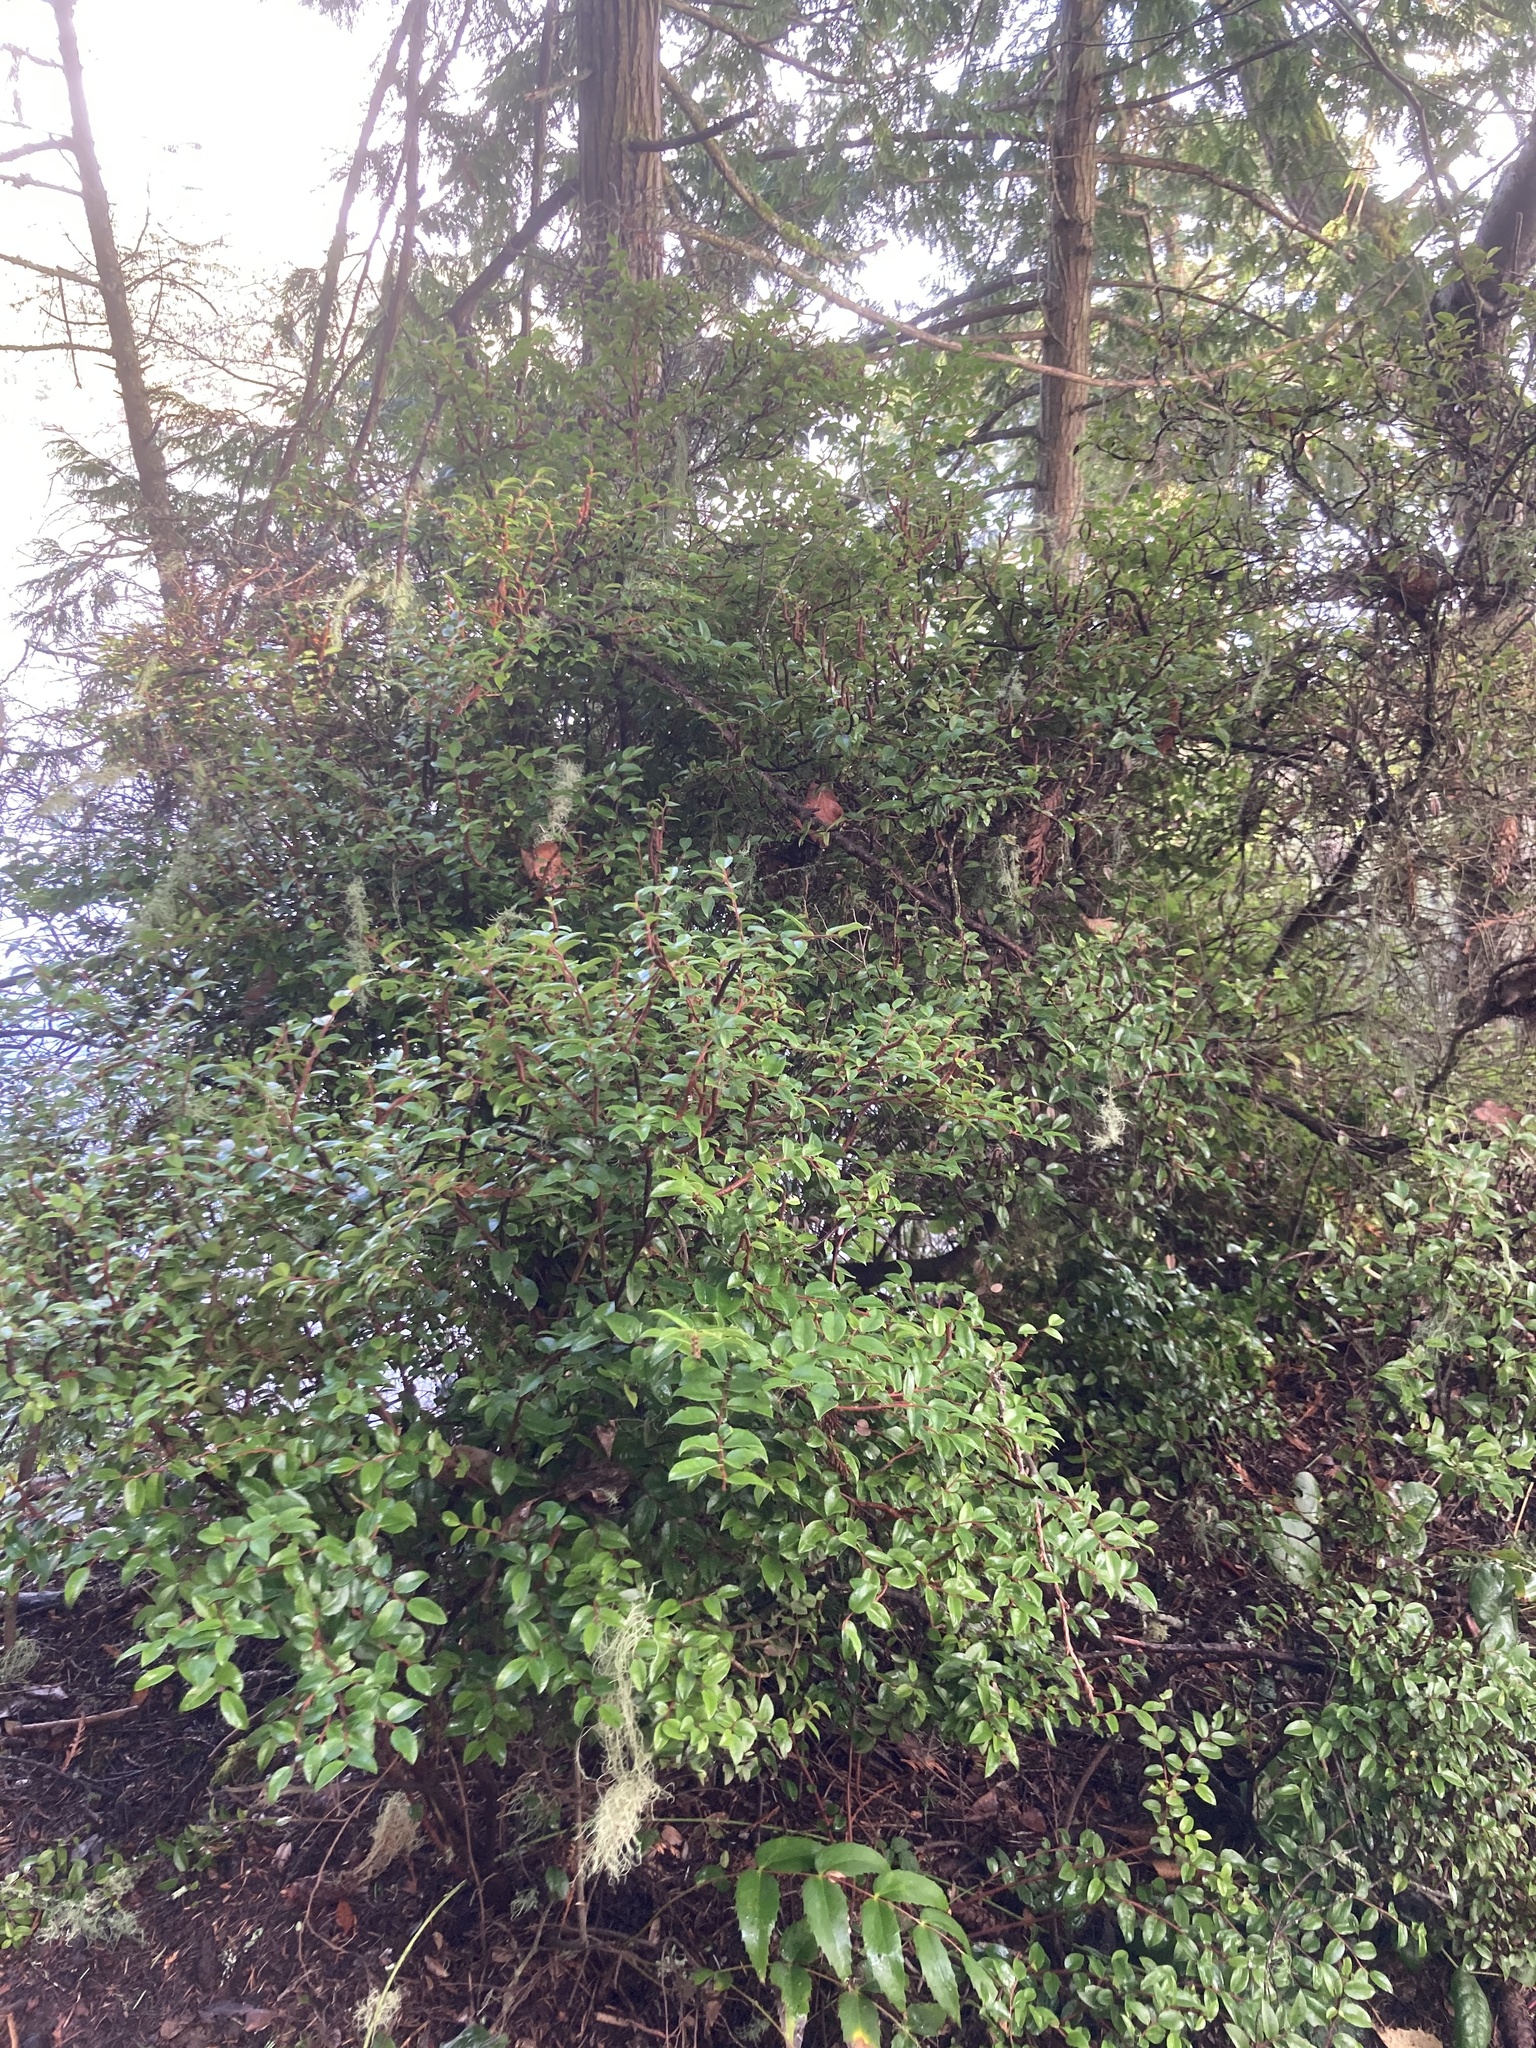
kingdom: Plantae
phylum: Tracheophyta
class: Magnoliopsida
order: Ericales
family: Ericaceae
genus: Vaccinium
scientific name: Vaccinium ovatum
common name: California-huckleberry
